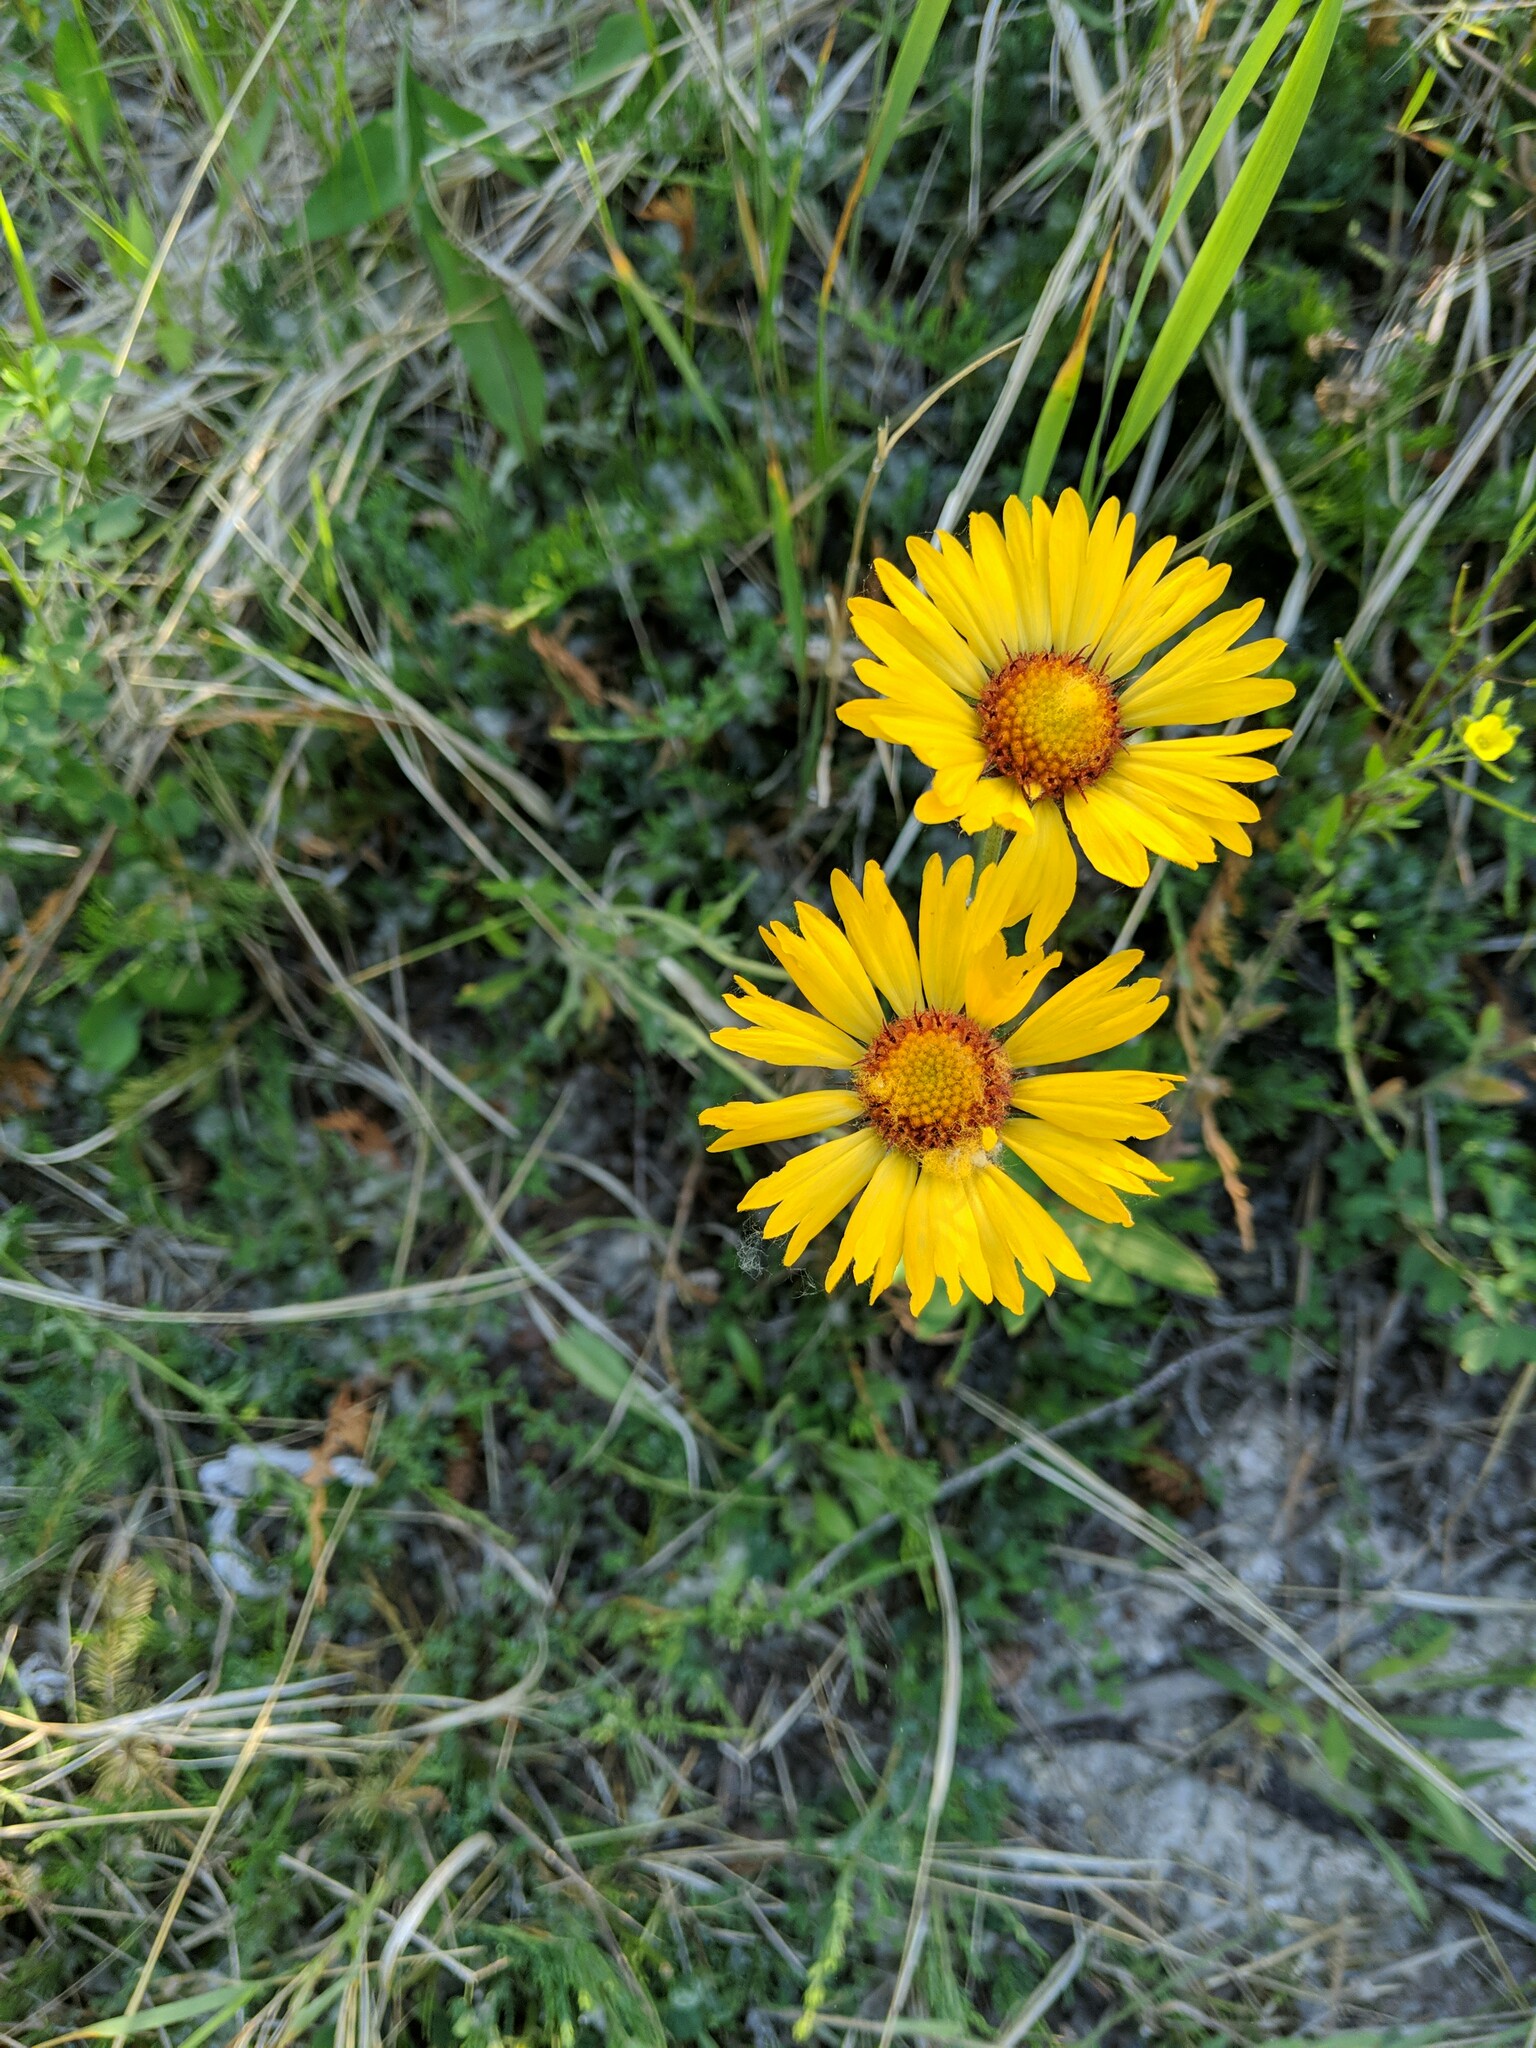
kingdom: Plantae
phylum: Tracheophyta
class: Magnoliopsida
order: Asterales
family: Asteraceae
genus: Gaillardia
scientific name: Gaillardia aristata
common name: Blanket-flower
